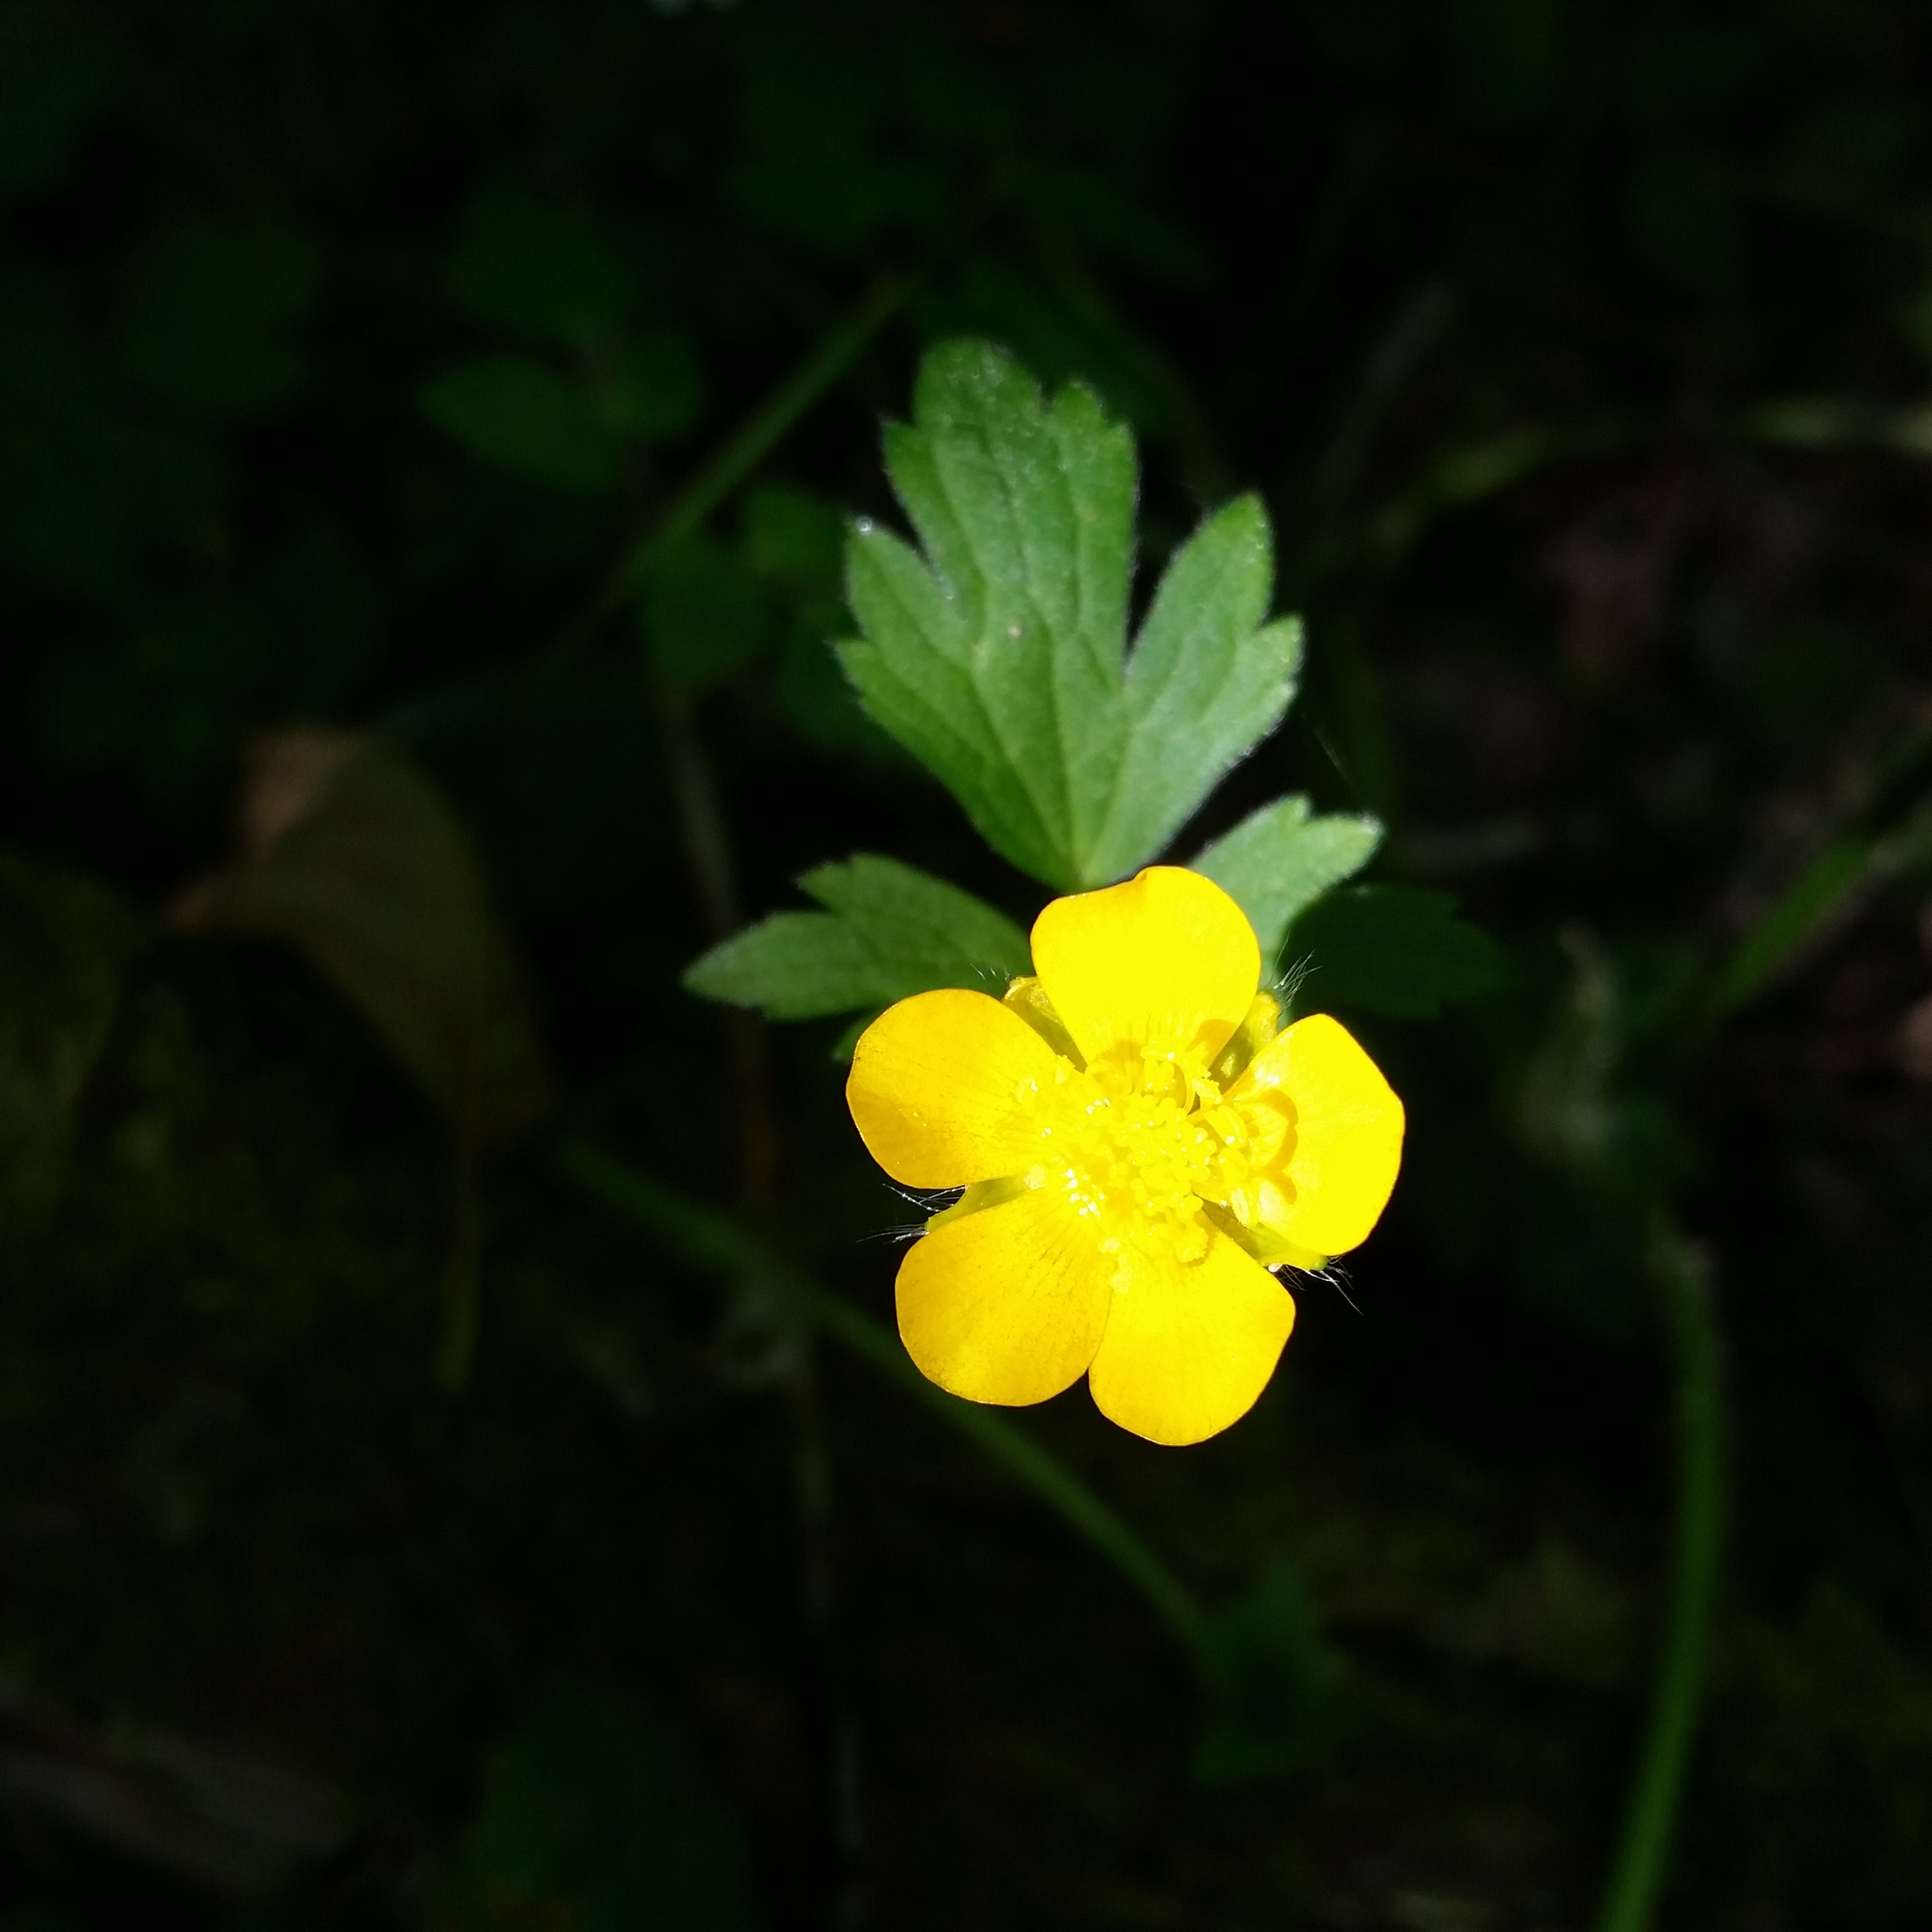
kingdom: Plantae
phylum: Tracheophyta
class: Magnoliopsida
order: Ranunculales
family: Ranunculaceae
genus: Ranunculus
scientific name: Ranunculus repens
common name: Creeping buttercup
